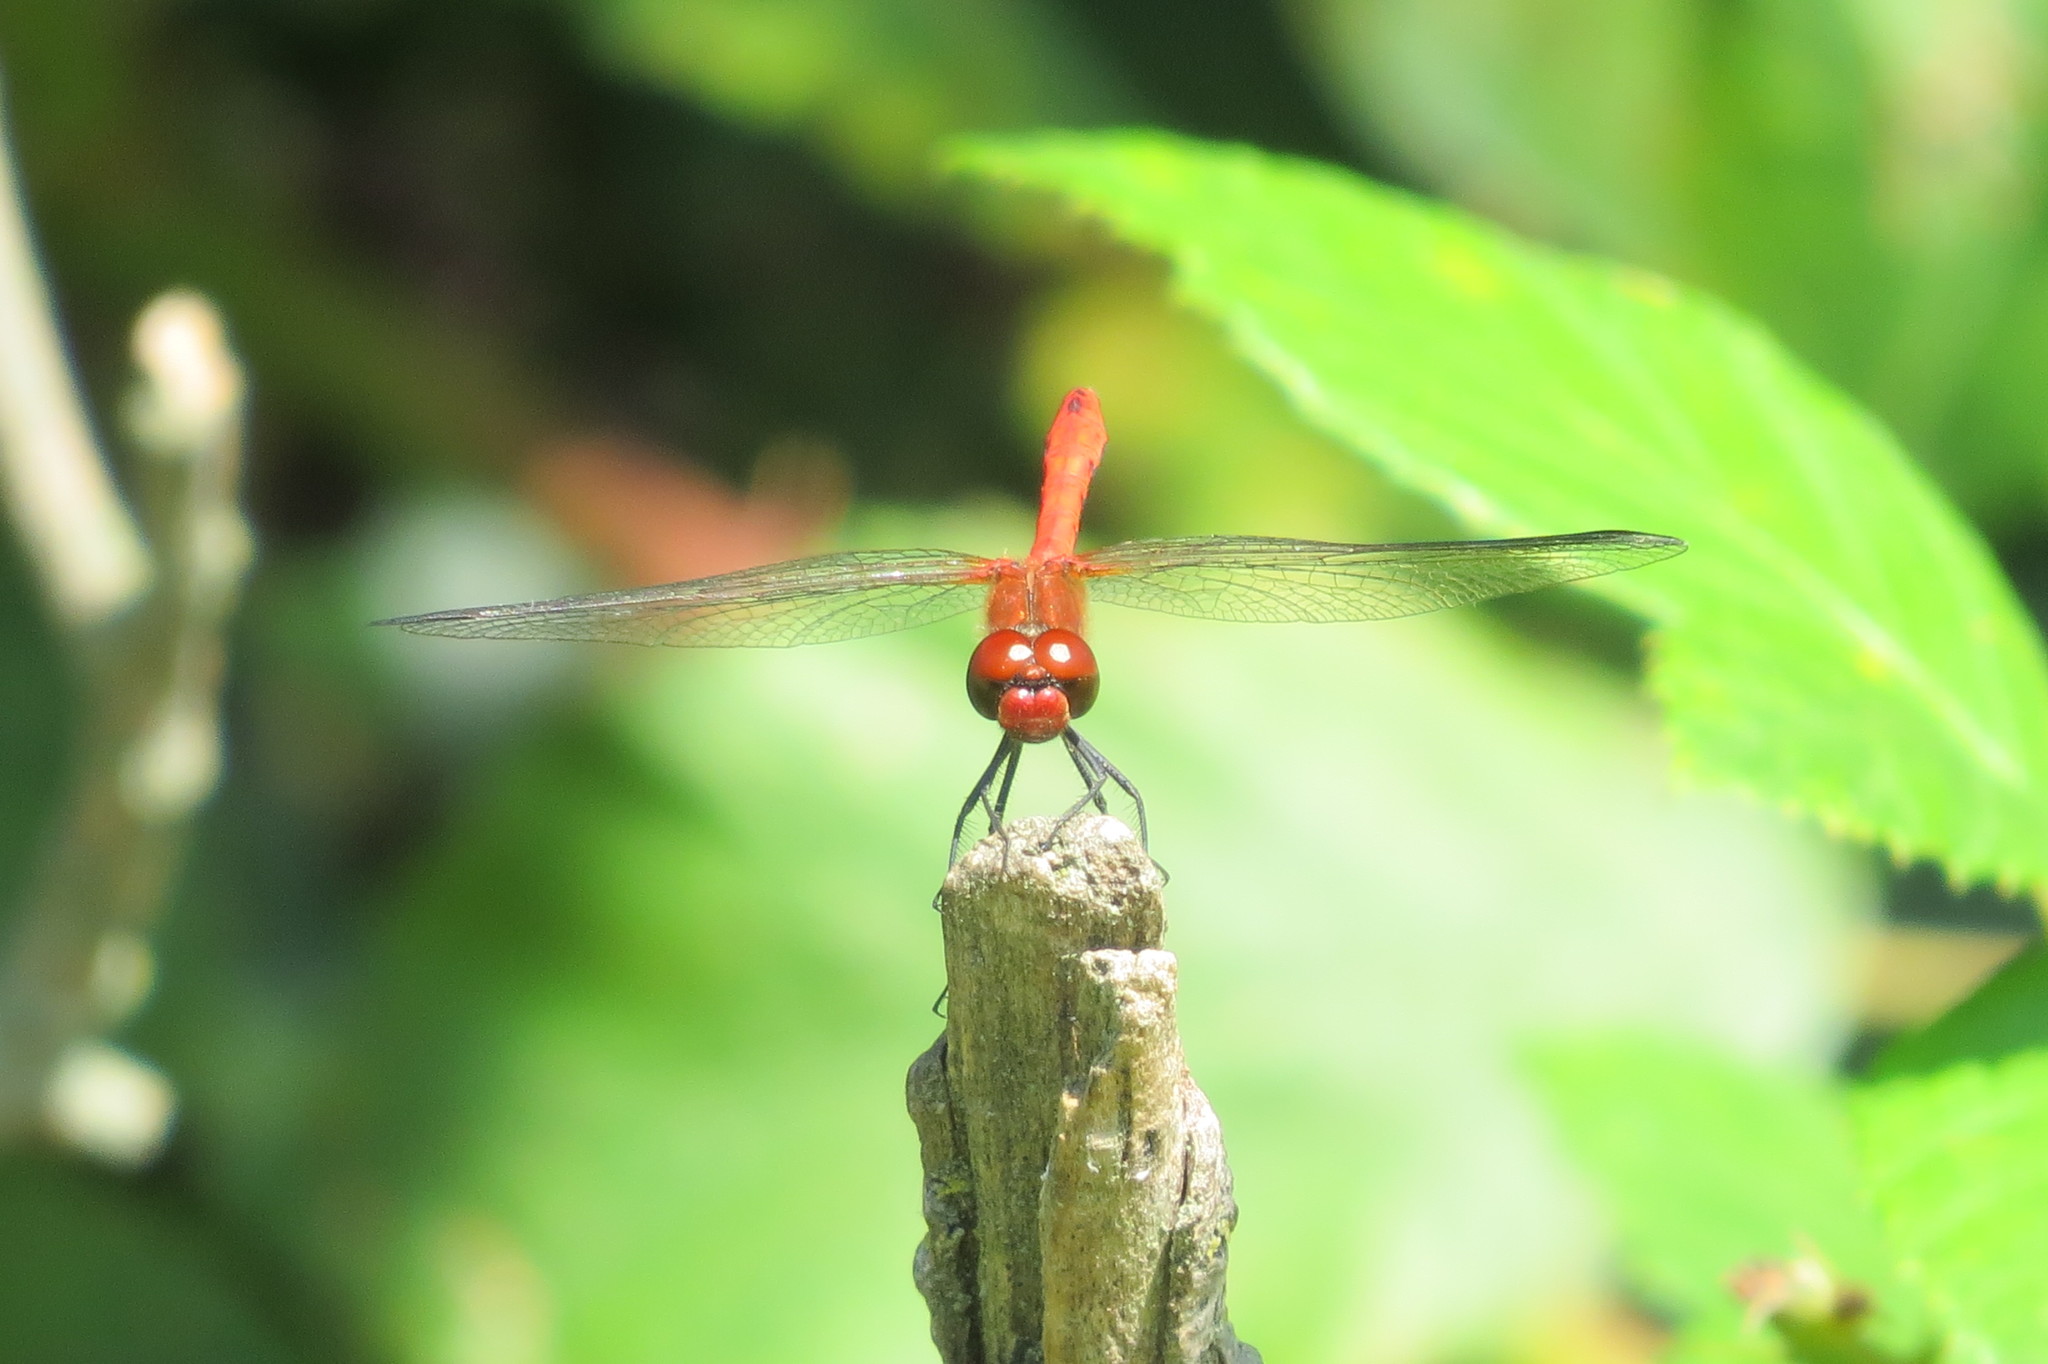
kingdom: Animalia
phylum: Arthropoda
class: Insecta
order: Odonata
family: Libellulidae
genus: Sympetrum
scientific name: Sympetrum sanguineum
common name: Ruddy darter
